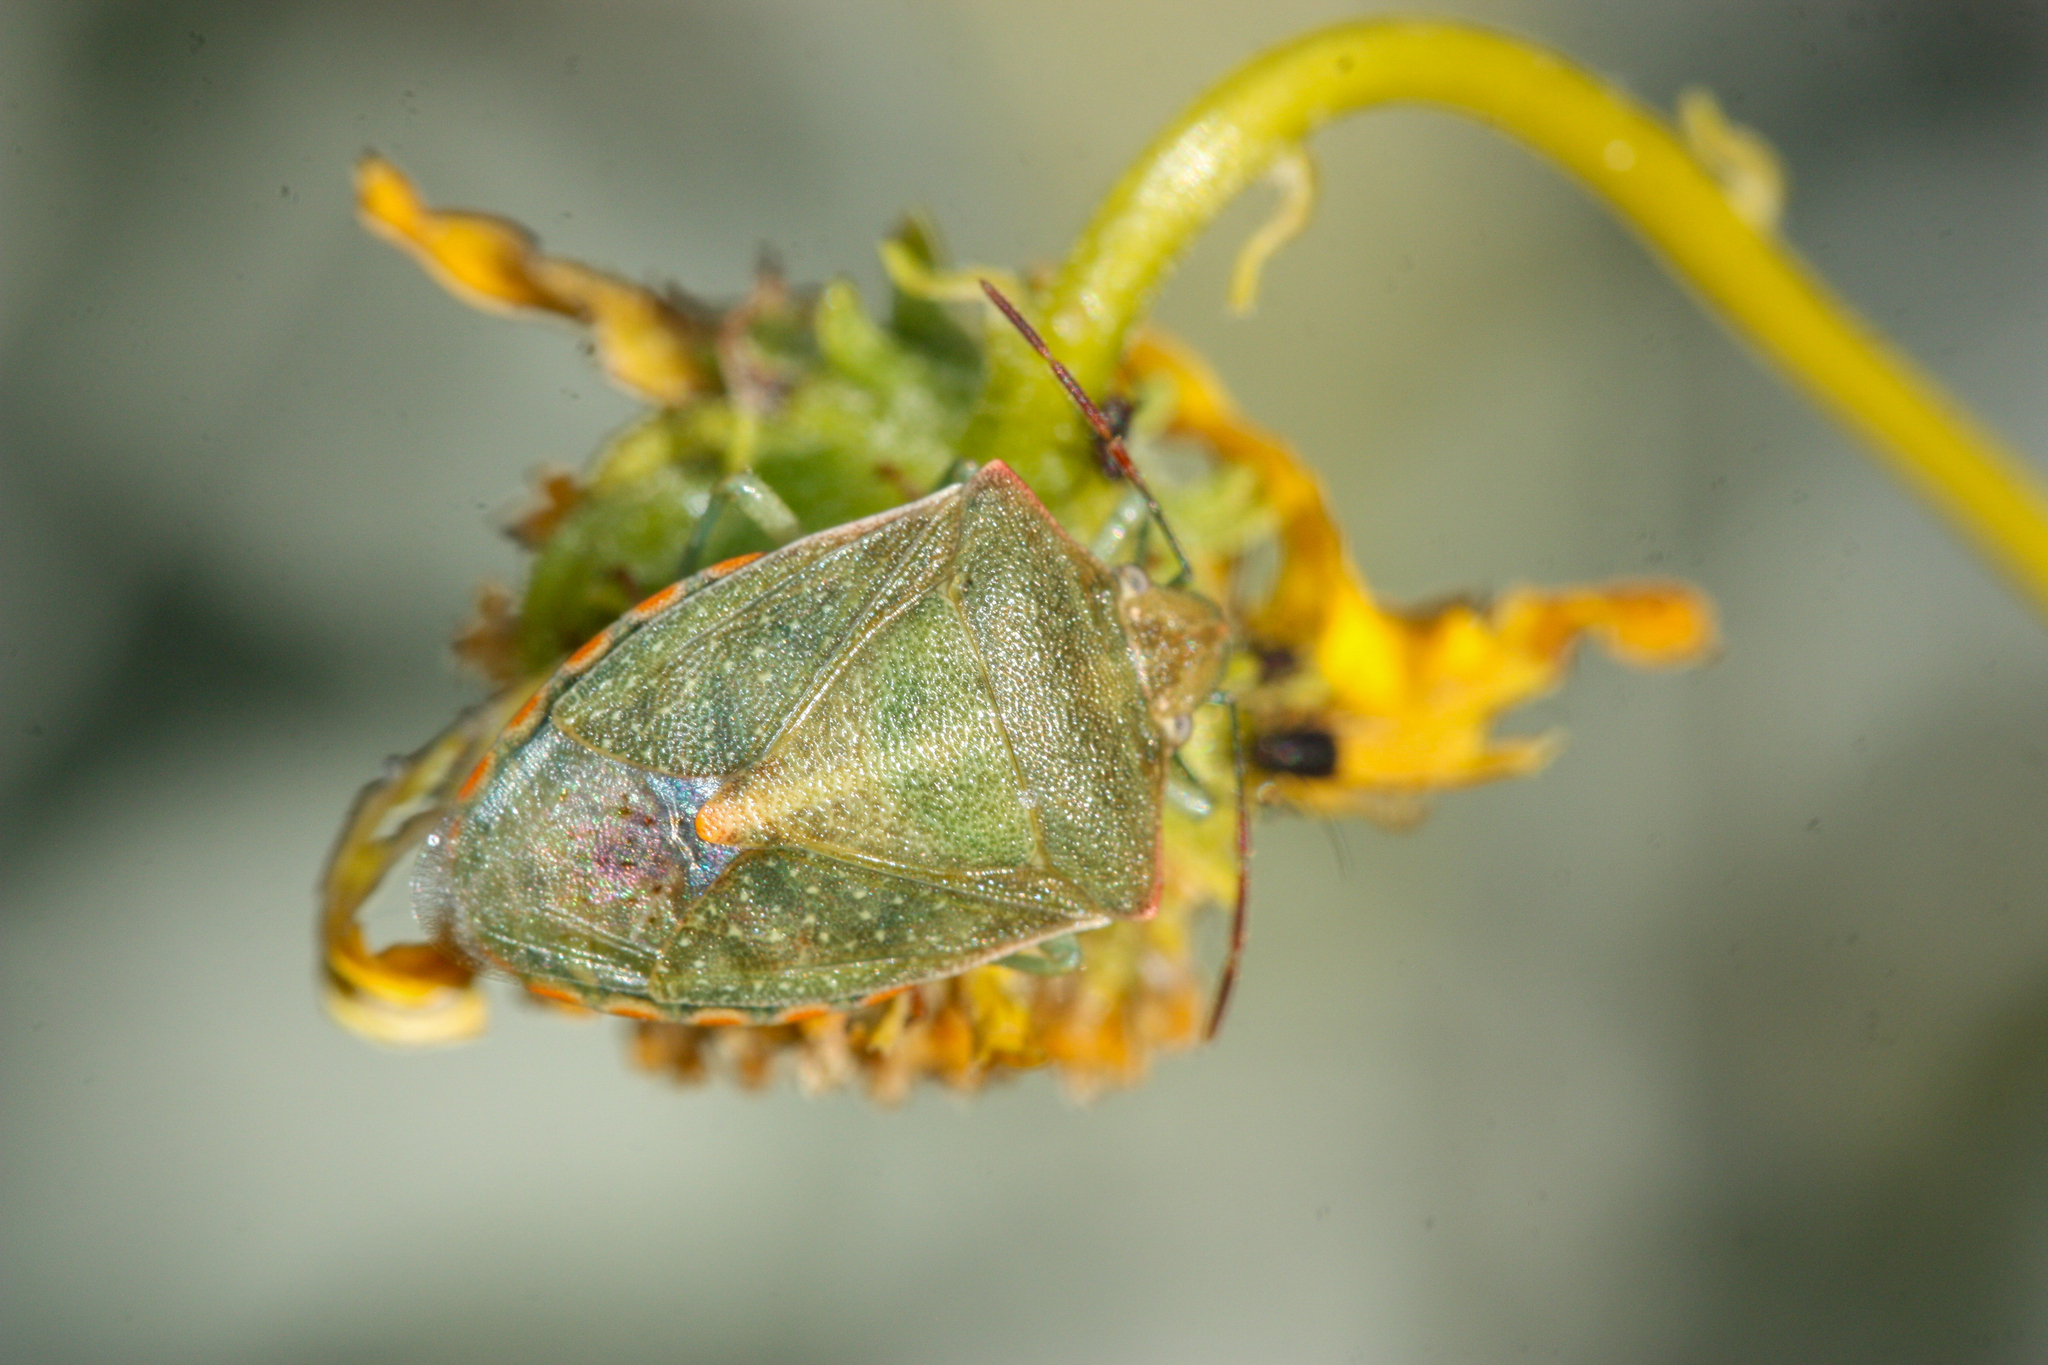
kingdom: Animalia
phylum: Arthropoda
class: Insecta
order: Hemiptera
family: Pentatomidae
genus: Thyanta
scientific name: Thyanta accerra
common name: Stink bug
